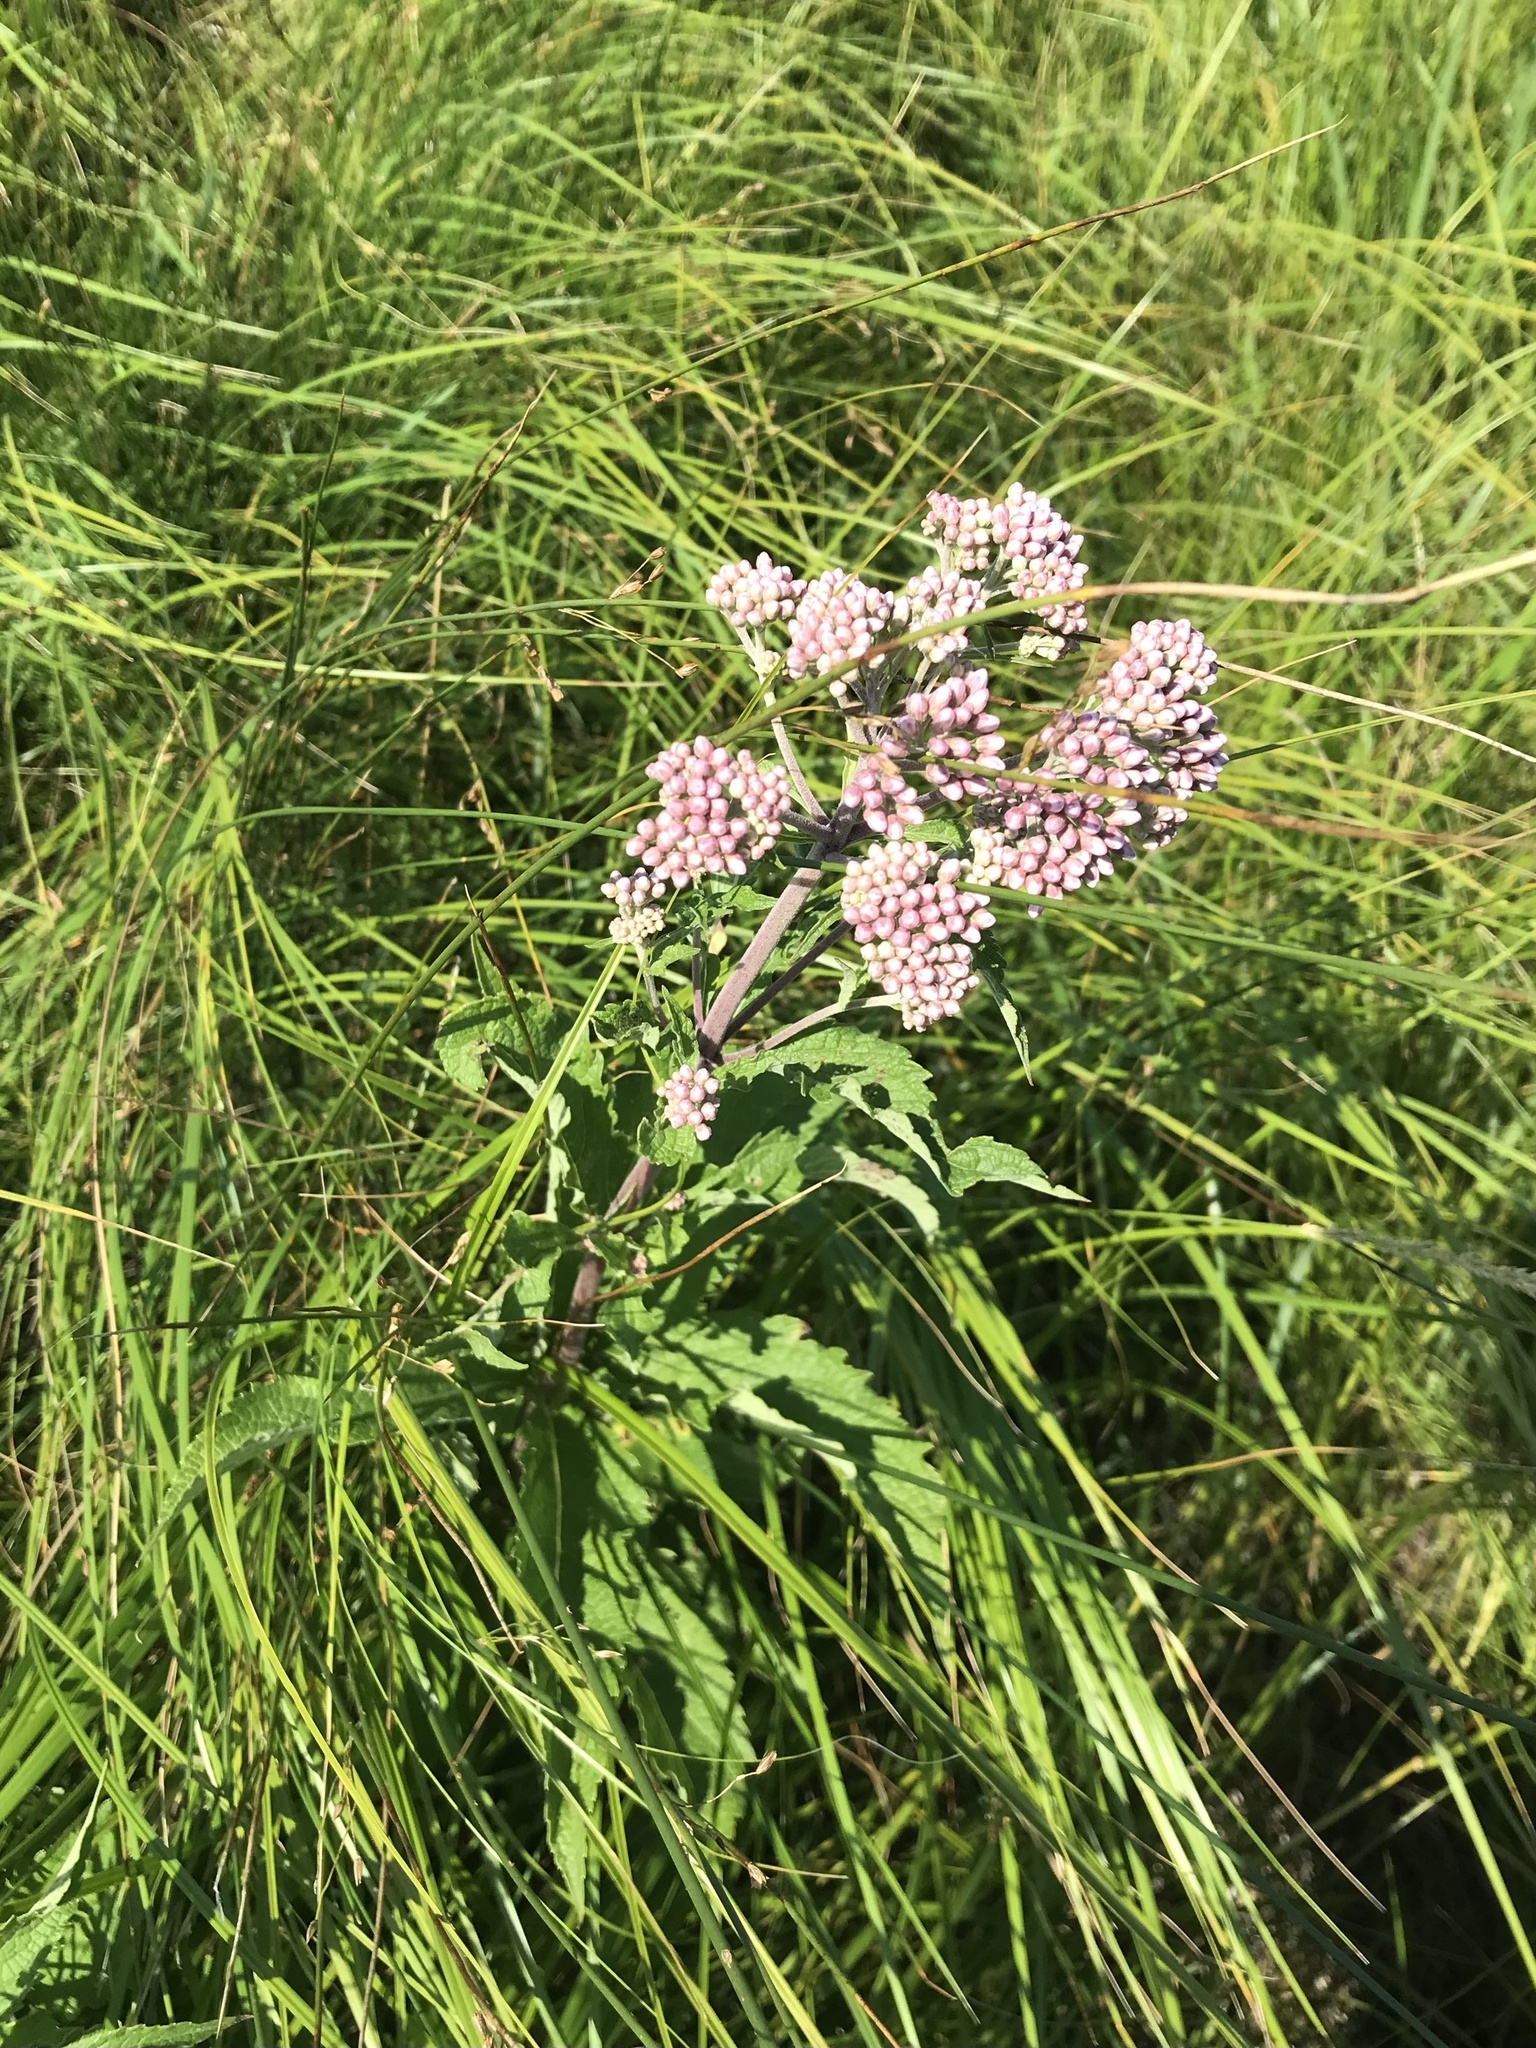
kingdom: Plantae
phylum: Tracheophyta
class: Magnoliopsida
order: Asterales
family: Asteraceae
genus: Eutrochium
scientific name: Eutrochium maculatum
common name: Spotted joe pye weed
